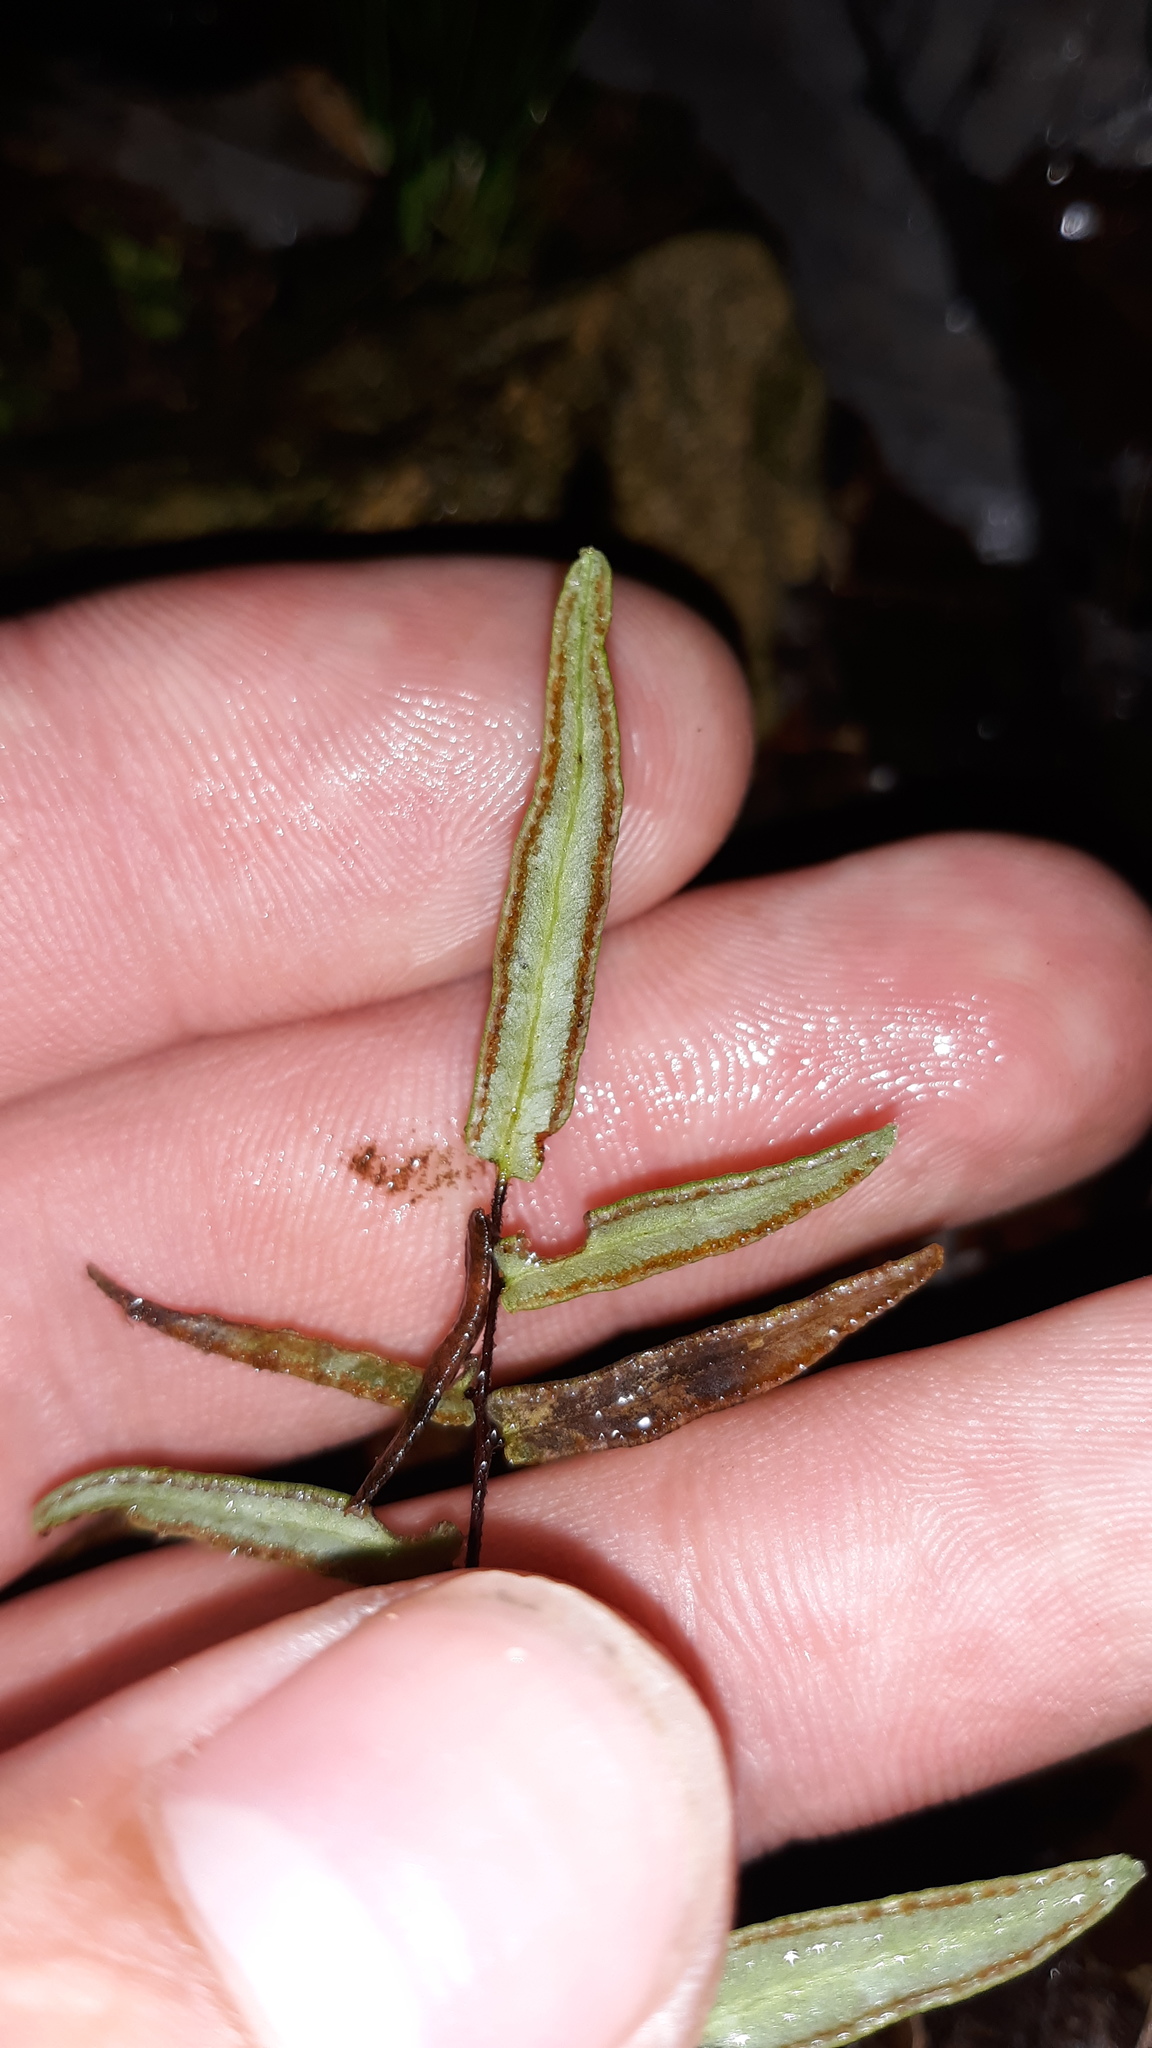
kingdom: Plantae
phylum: Tracheophyta
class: Polypodiopsida
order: Polypodiales
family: Pteridaceae
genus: Pellaea
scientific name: Pellaea atropurpurea
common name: Hairy cliffbrake
